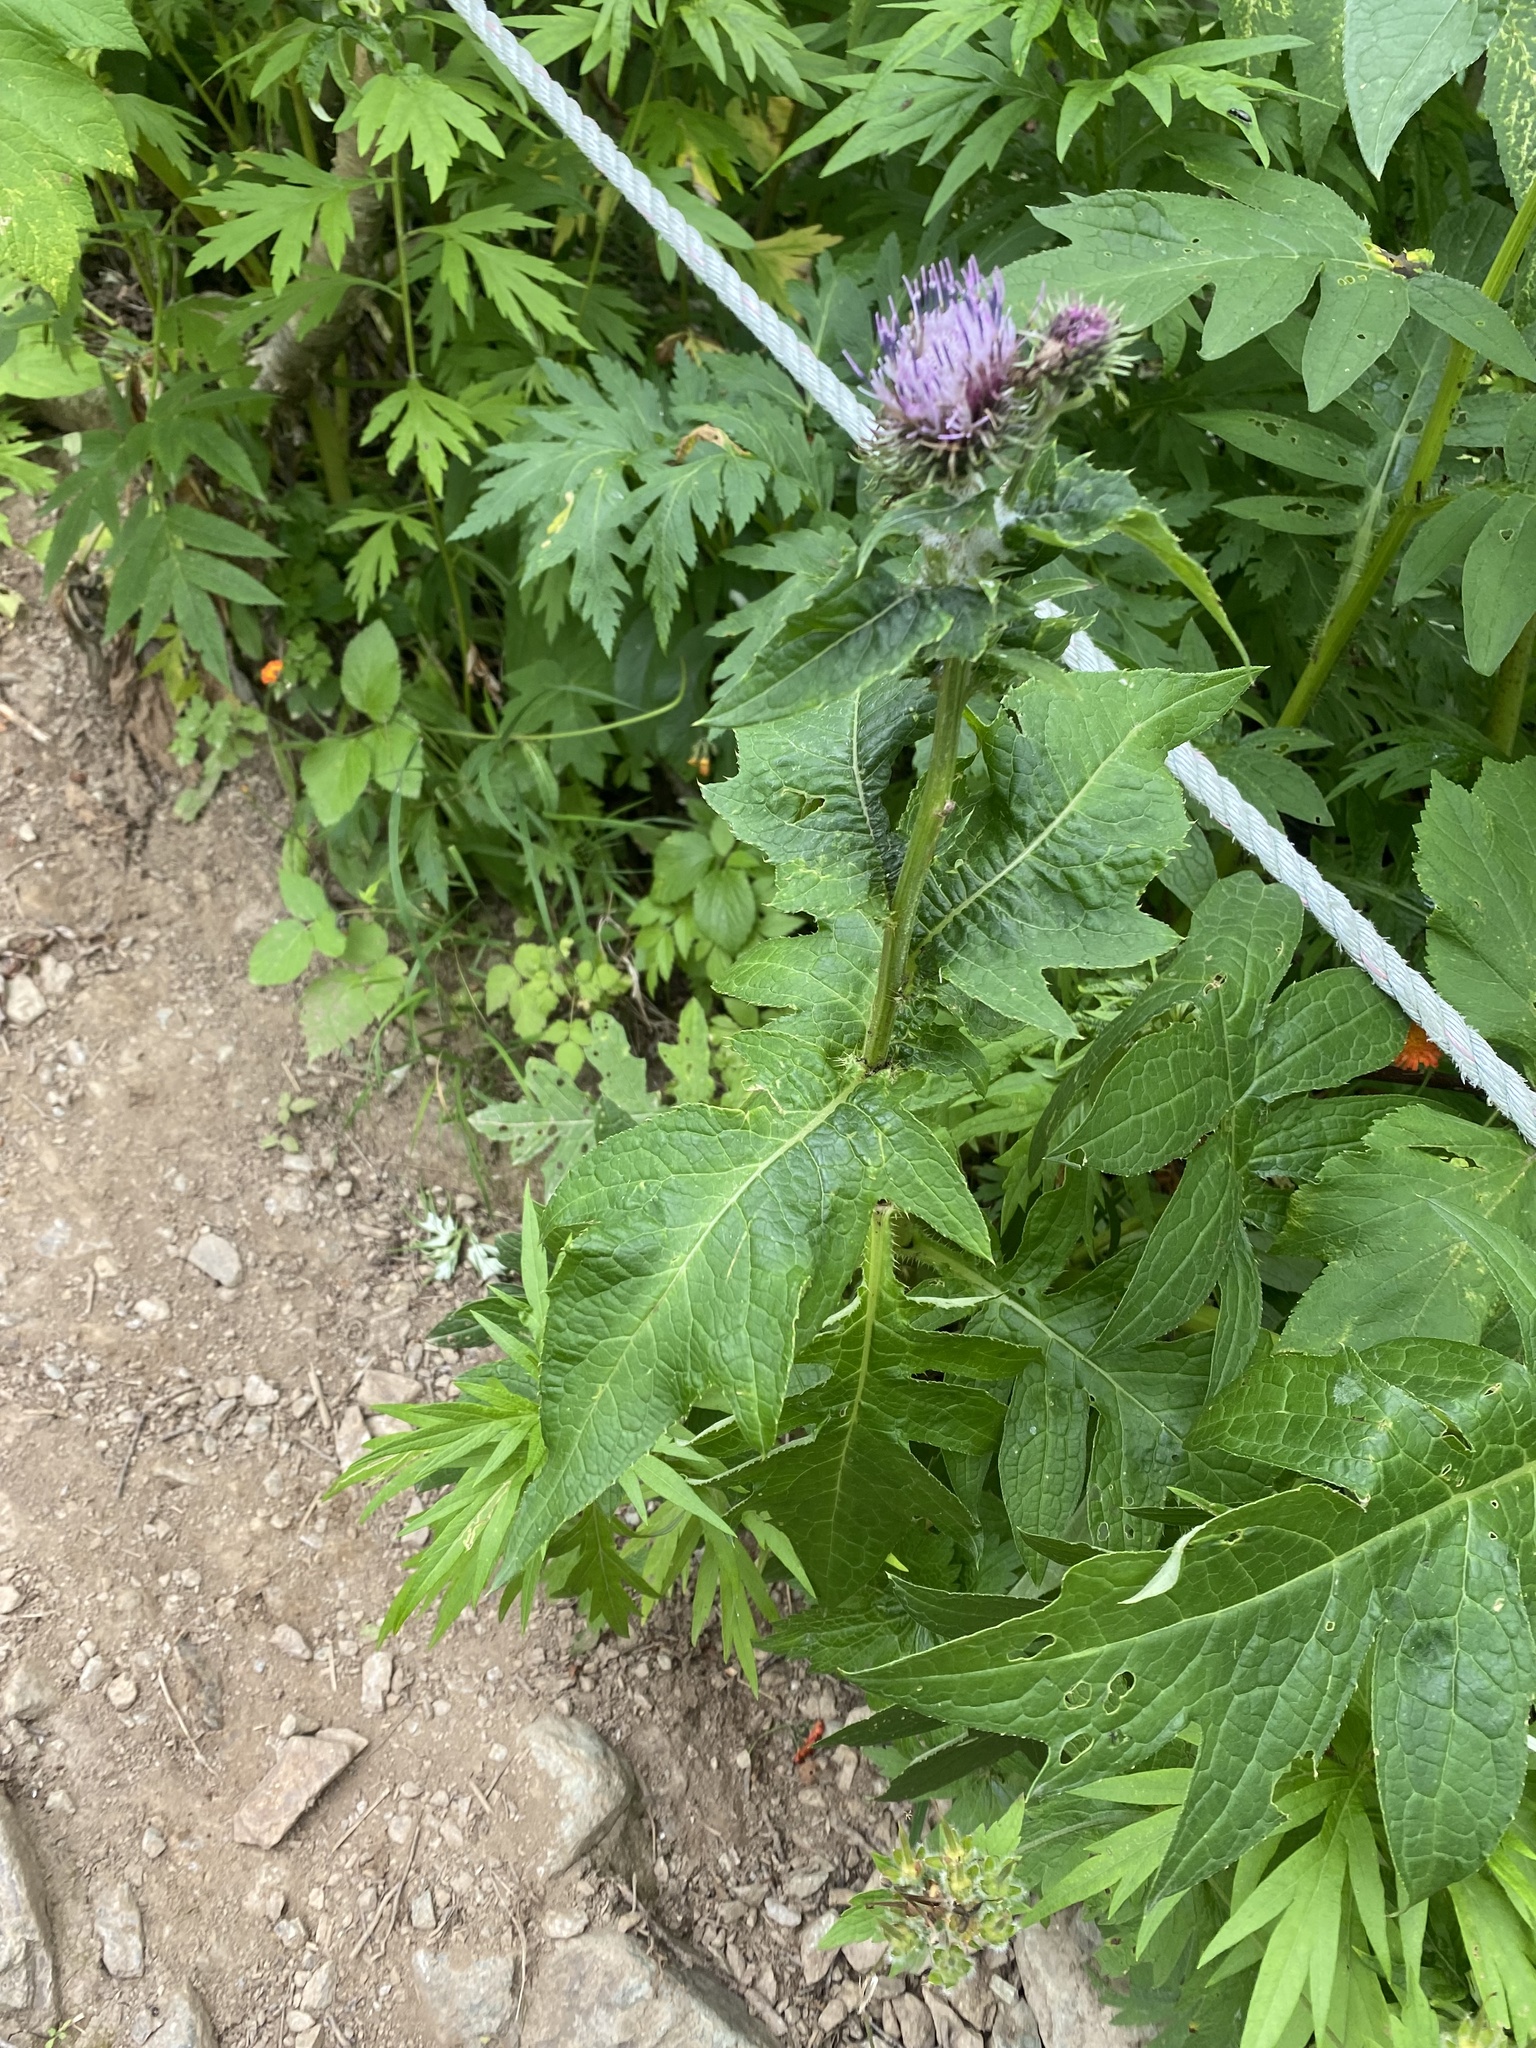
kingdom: Plantae
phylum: Tracheophyta
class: Magnoliopsida
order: Asterales
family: Asteraceae
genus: Cirsium
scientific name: Cirsium kamtschaticum
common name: Kamchatka thistle
